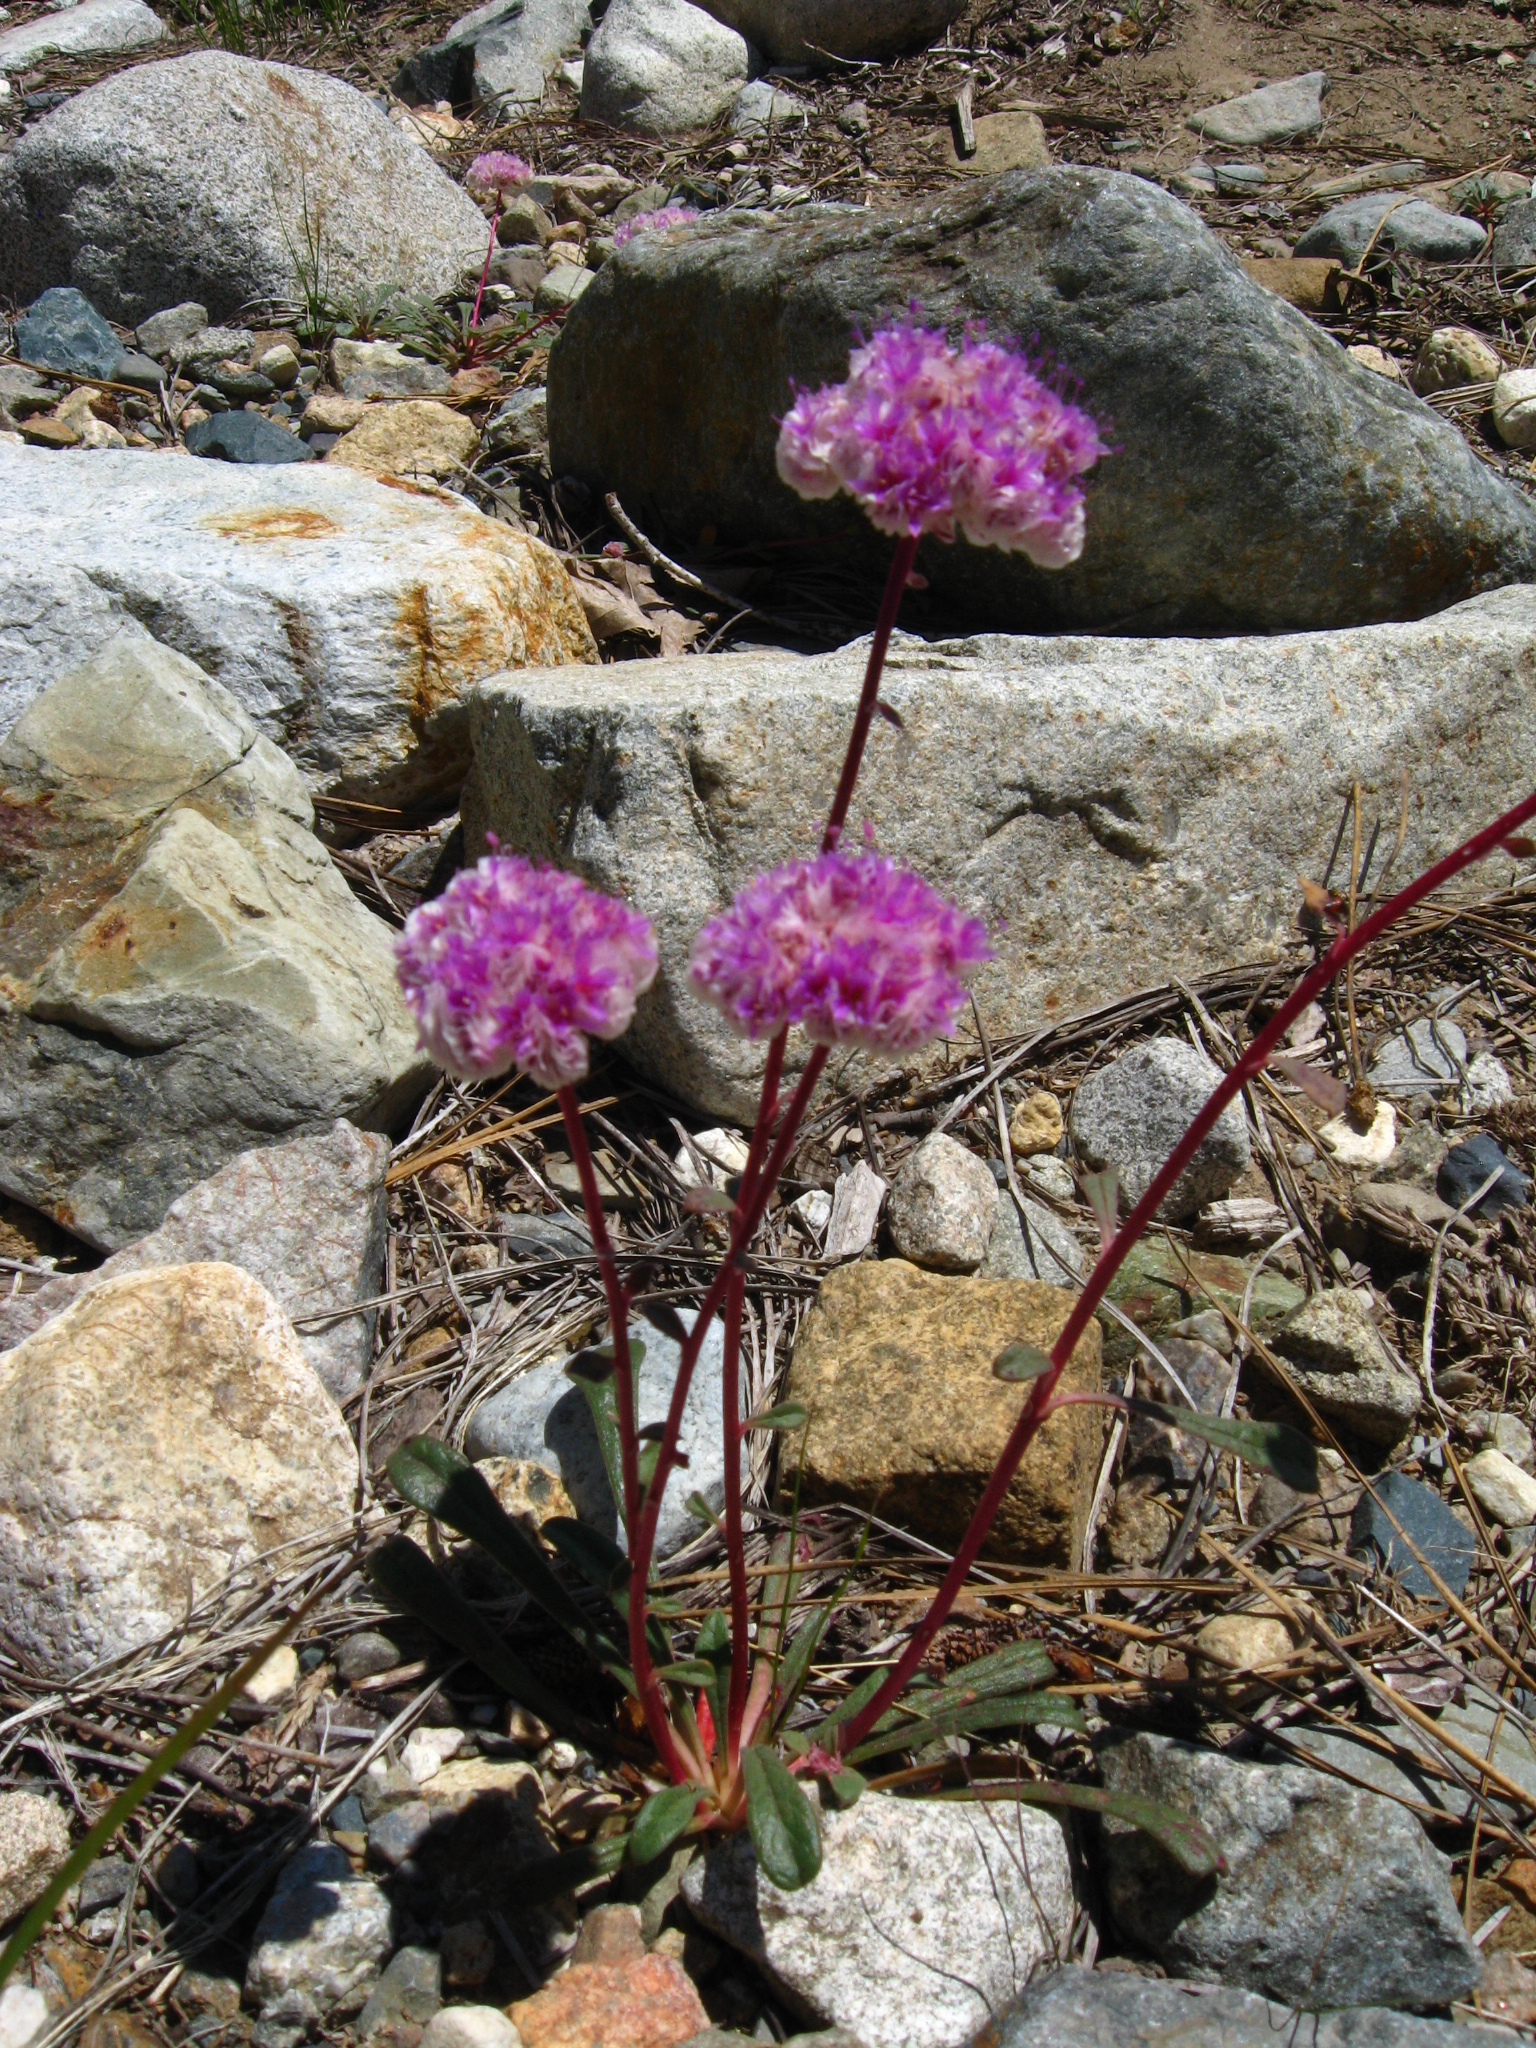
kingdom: Plantae
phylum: Tracheophyta
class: Magnoliopsida
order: Caryophyllales
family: Montiaceae
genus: Calyptridium
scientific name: Calyptridium monospermum
